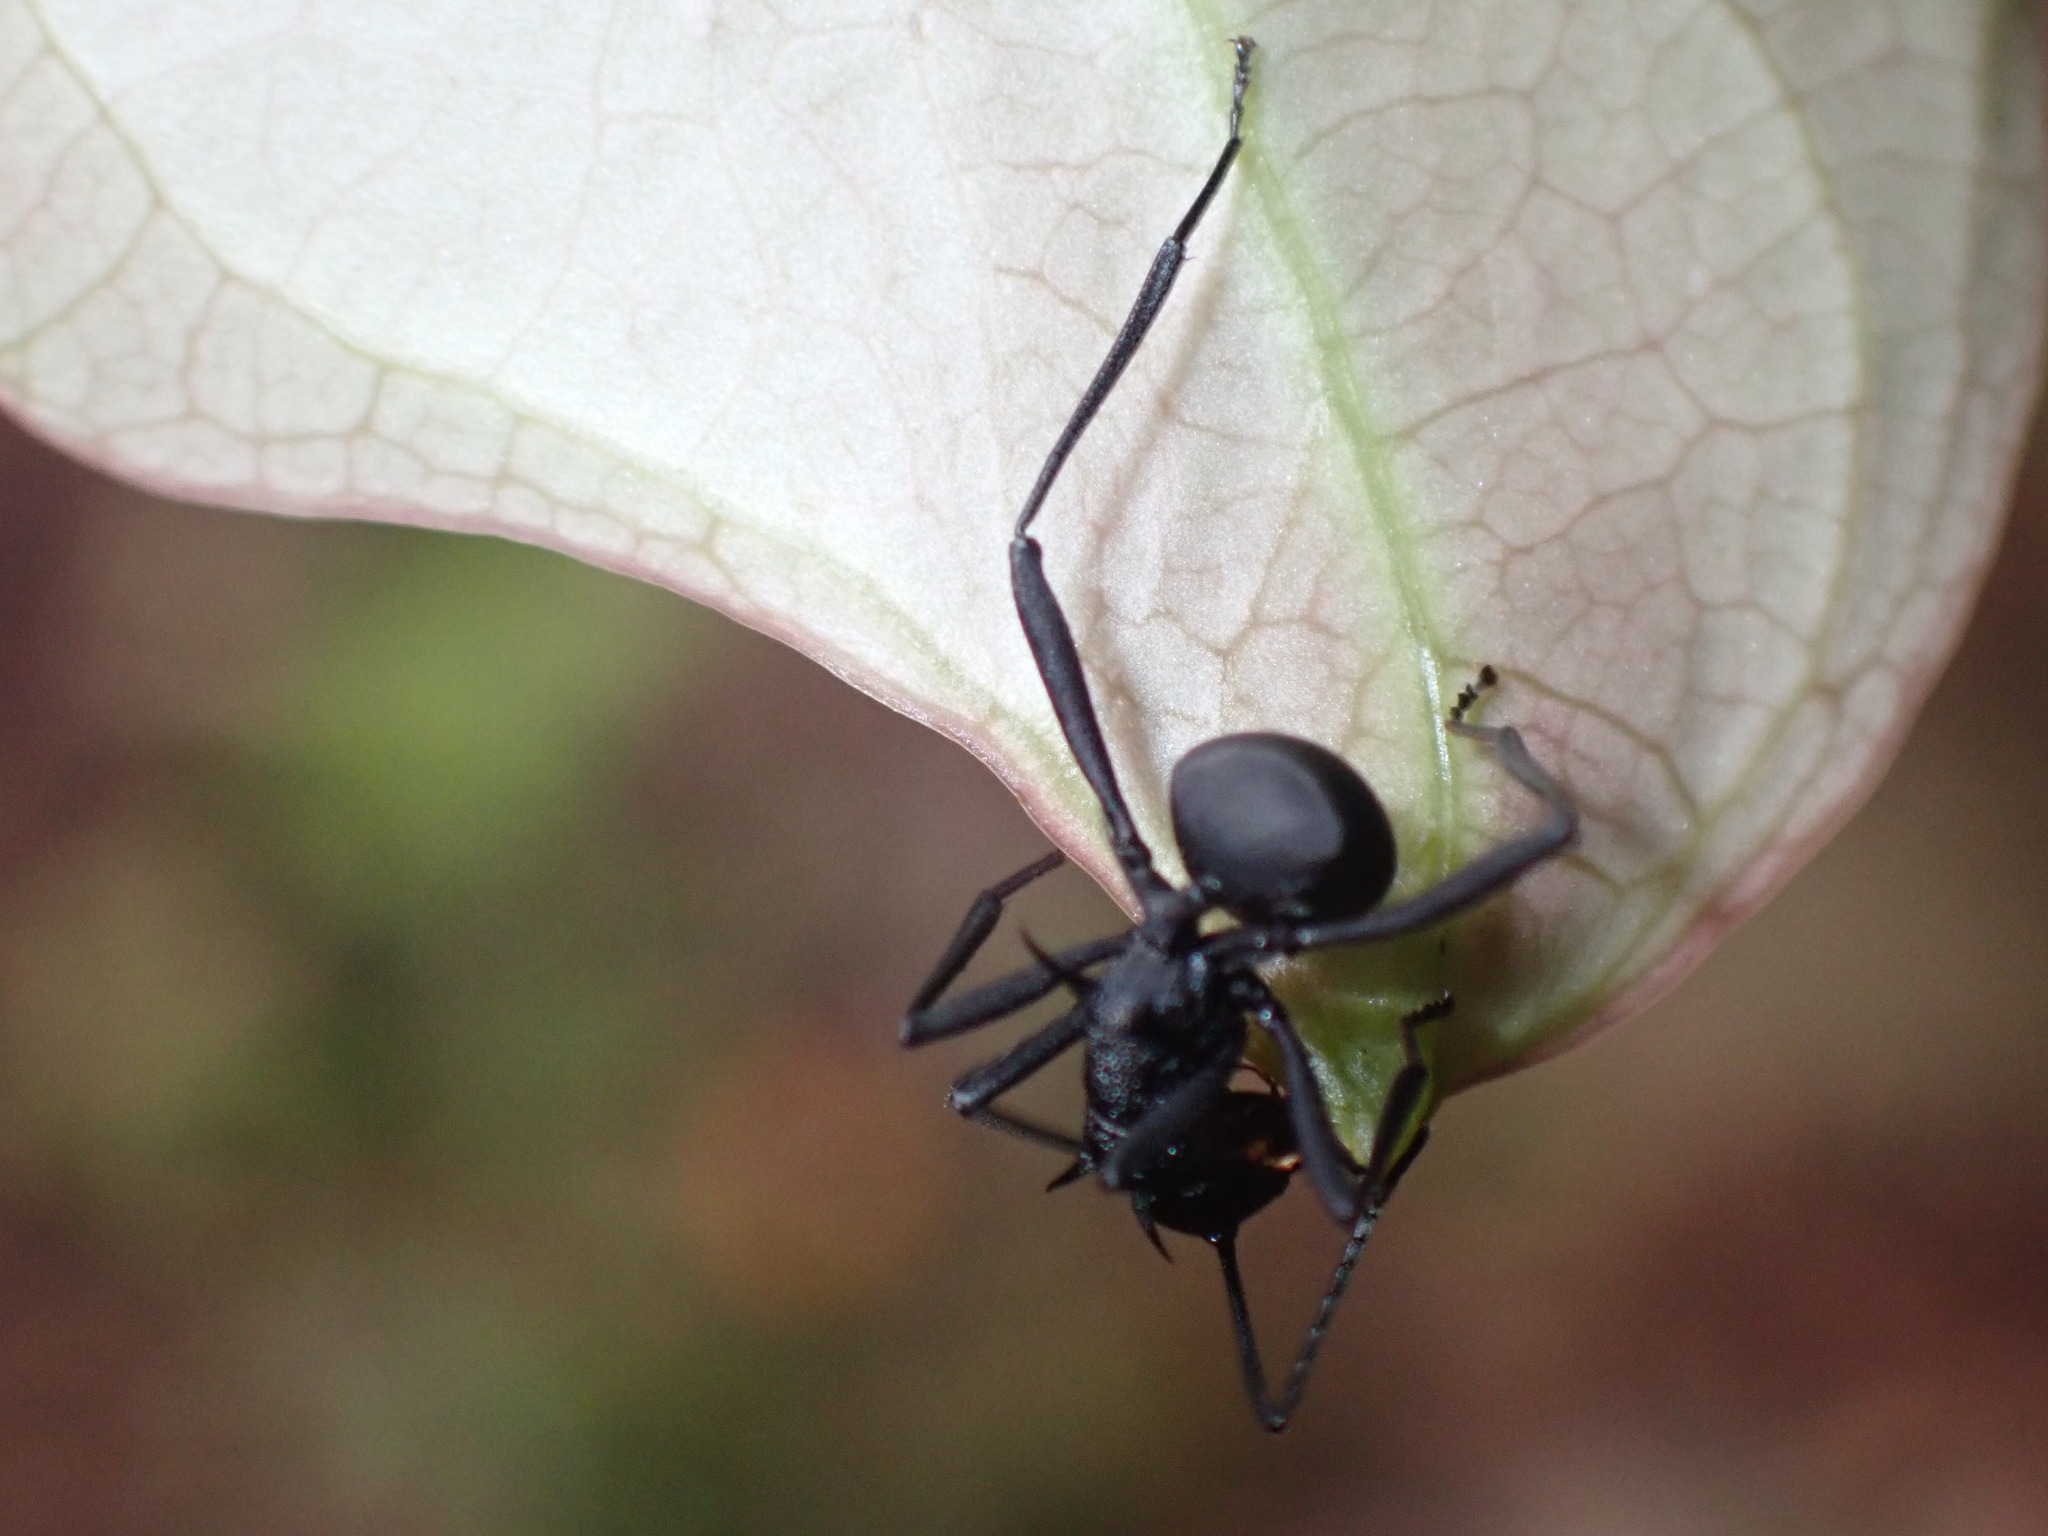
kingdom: Animalia
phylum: Arthropoda
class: Insecta
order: Hymenoptera
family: Formicidae
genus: Polyrhachis
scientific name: Polyrhachis armata
